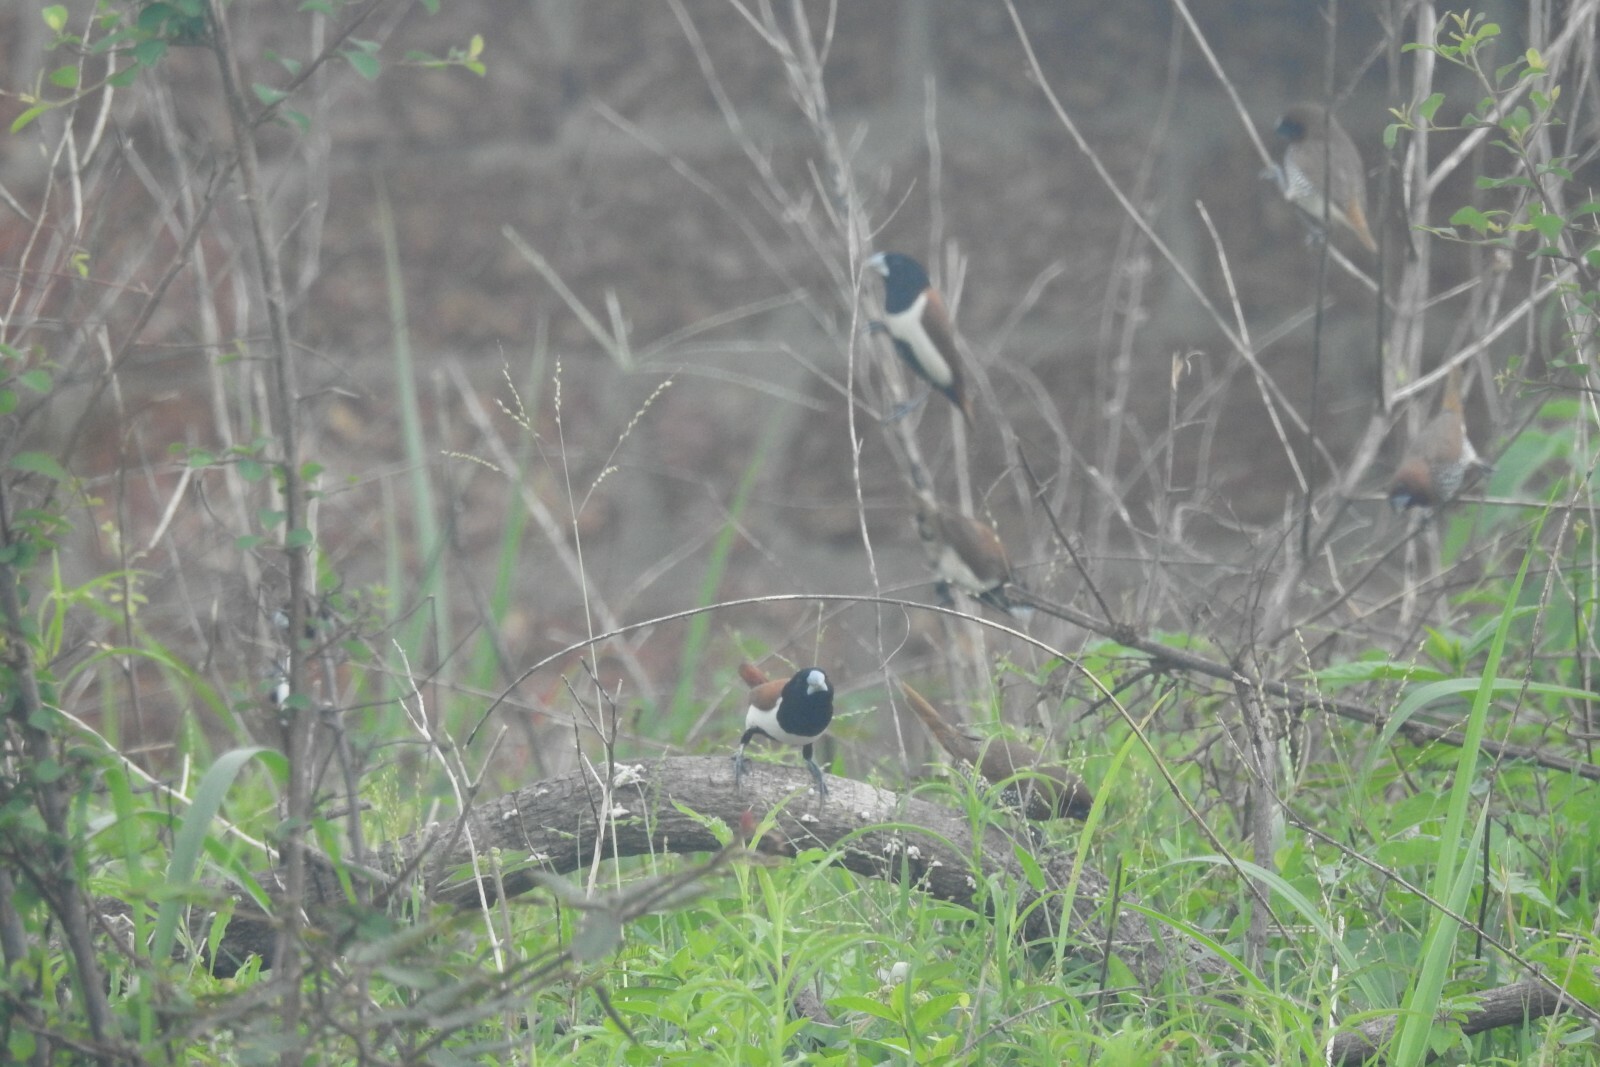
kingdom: Animalia
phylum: Chordata
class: Aves
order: Passeriformes
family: Estrildidae
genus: Lonchura
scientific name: Lonchura malacca
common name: Tricolored munia
